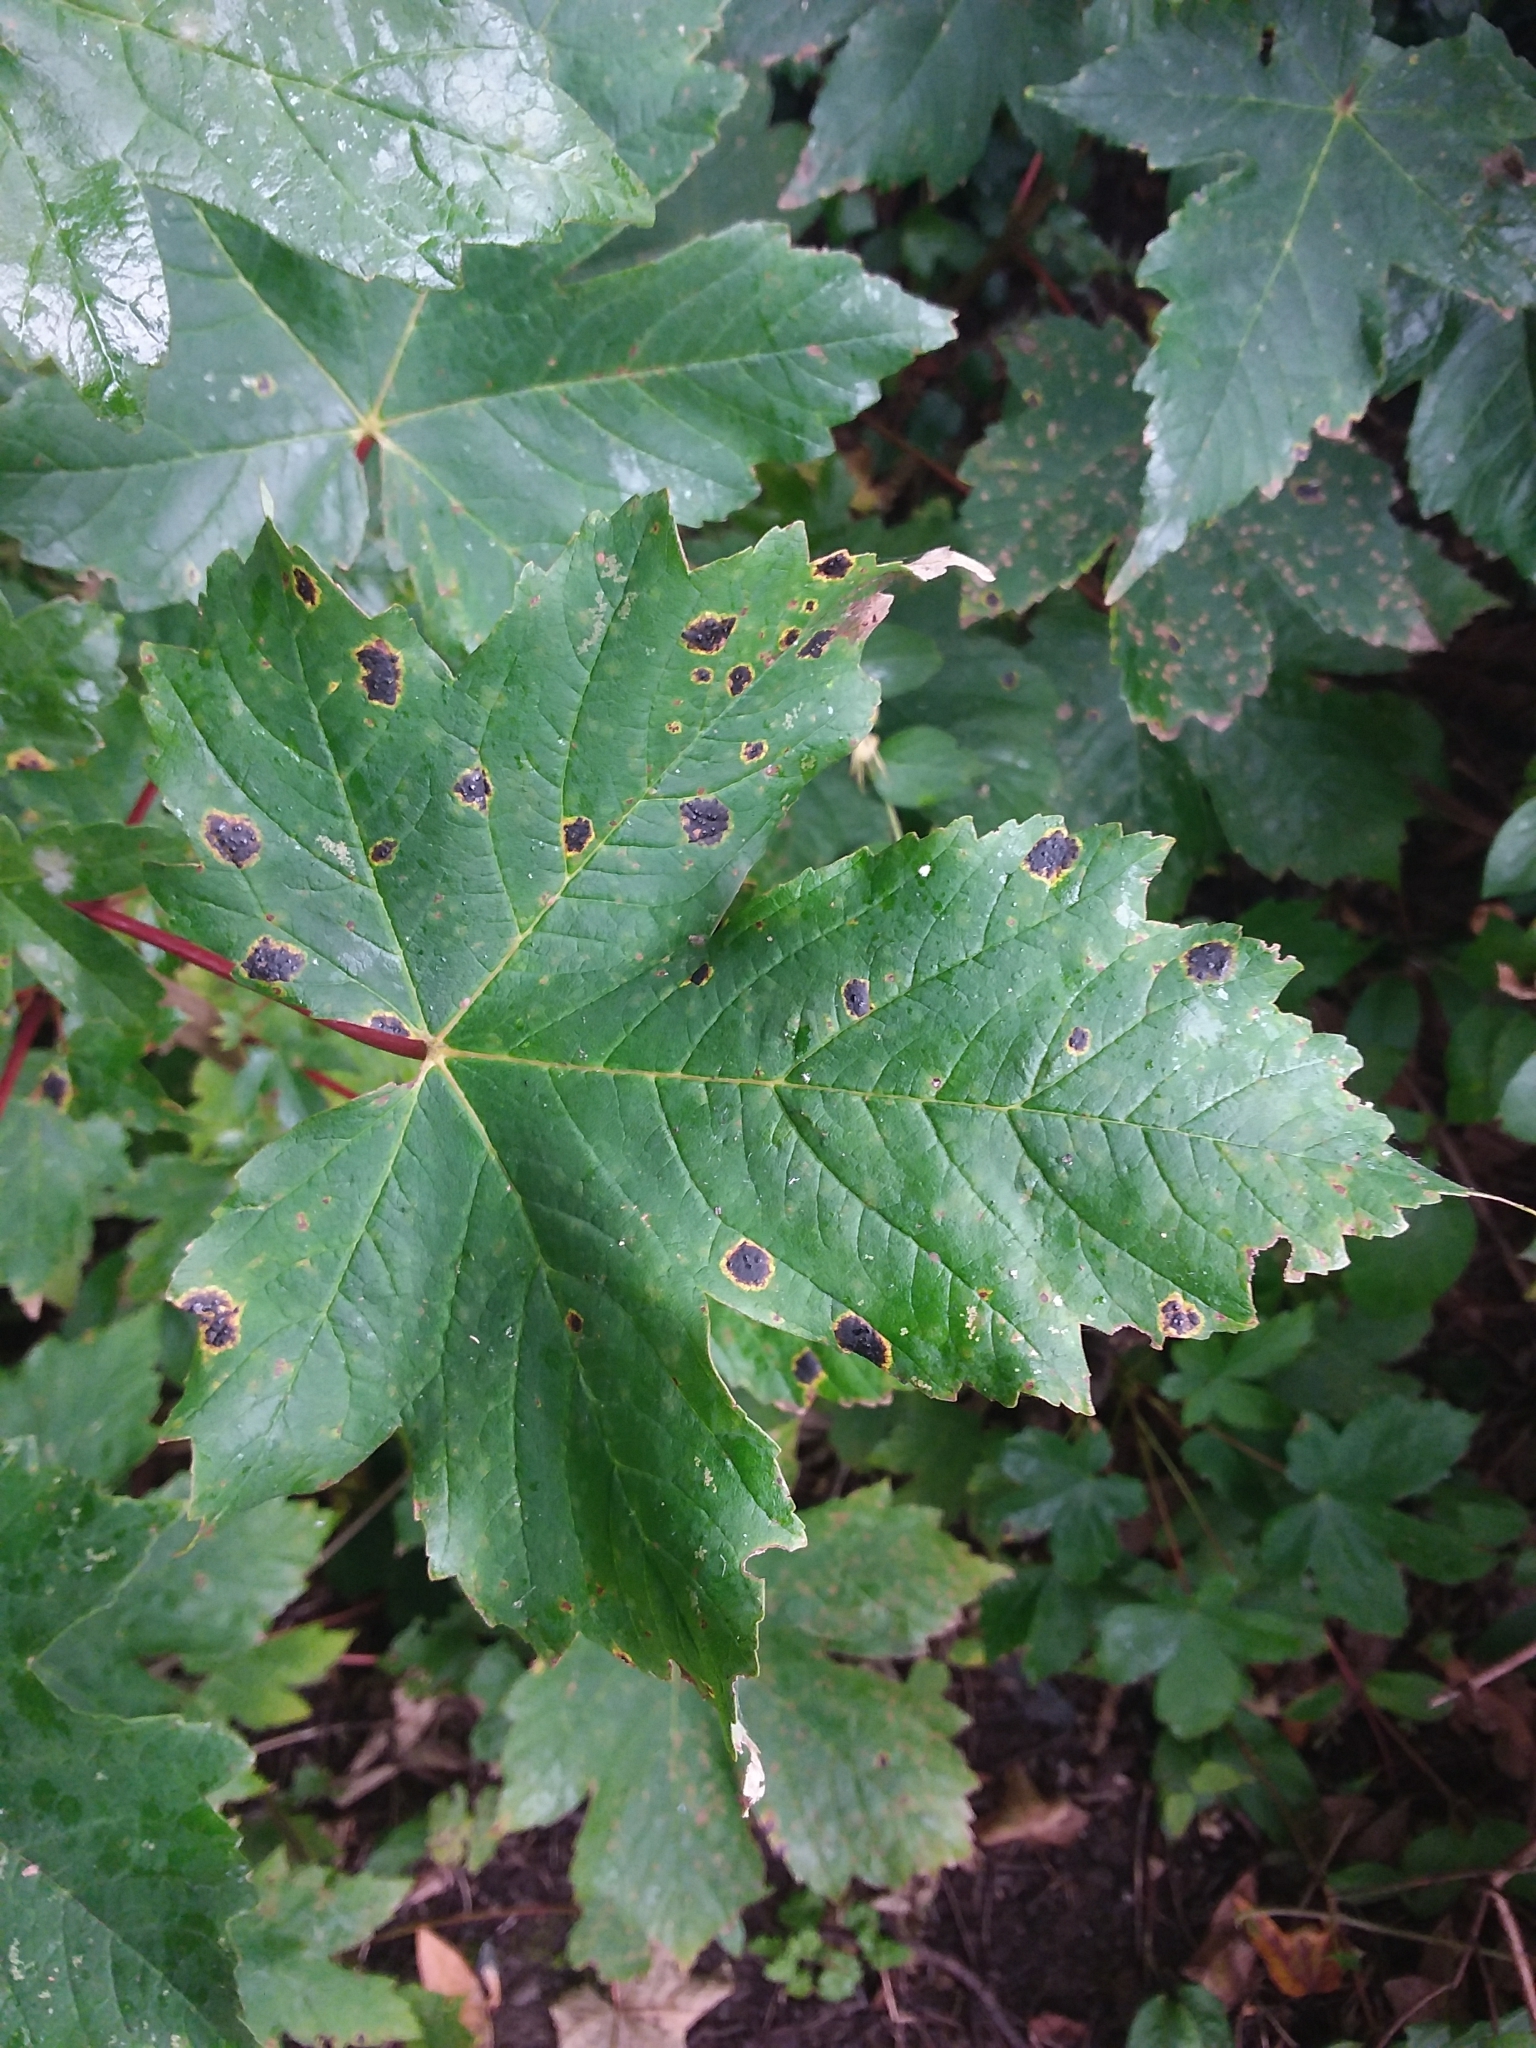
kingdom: Fungi
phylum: Ascomycota
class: Leotiomycetes
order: Rhytismatales
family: Rhytismataceae
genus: Rhytisma
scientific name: Rhytisma acerinum
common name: European tar spot
